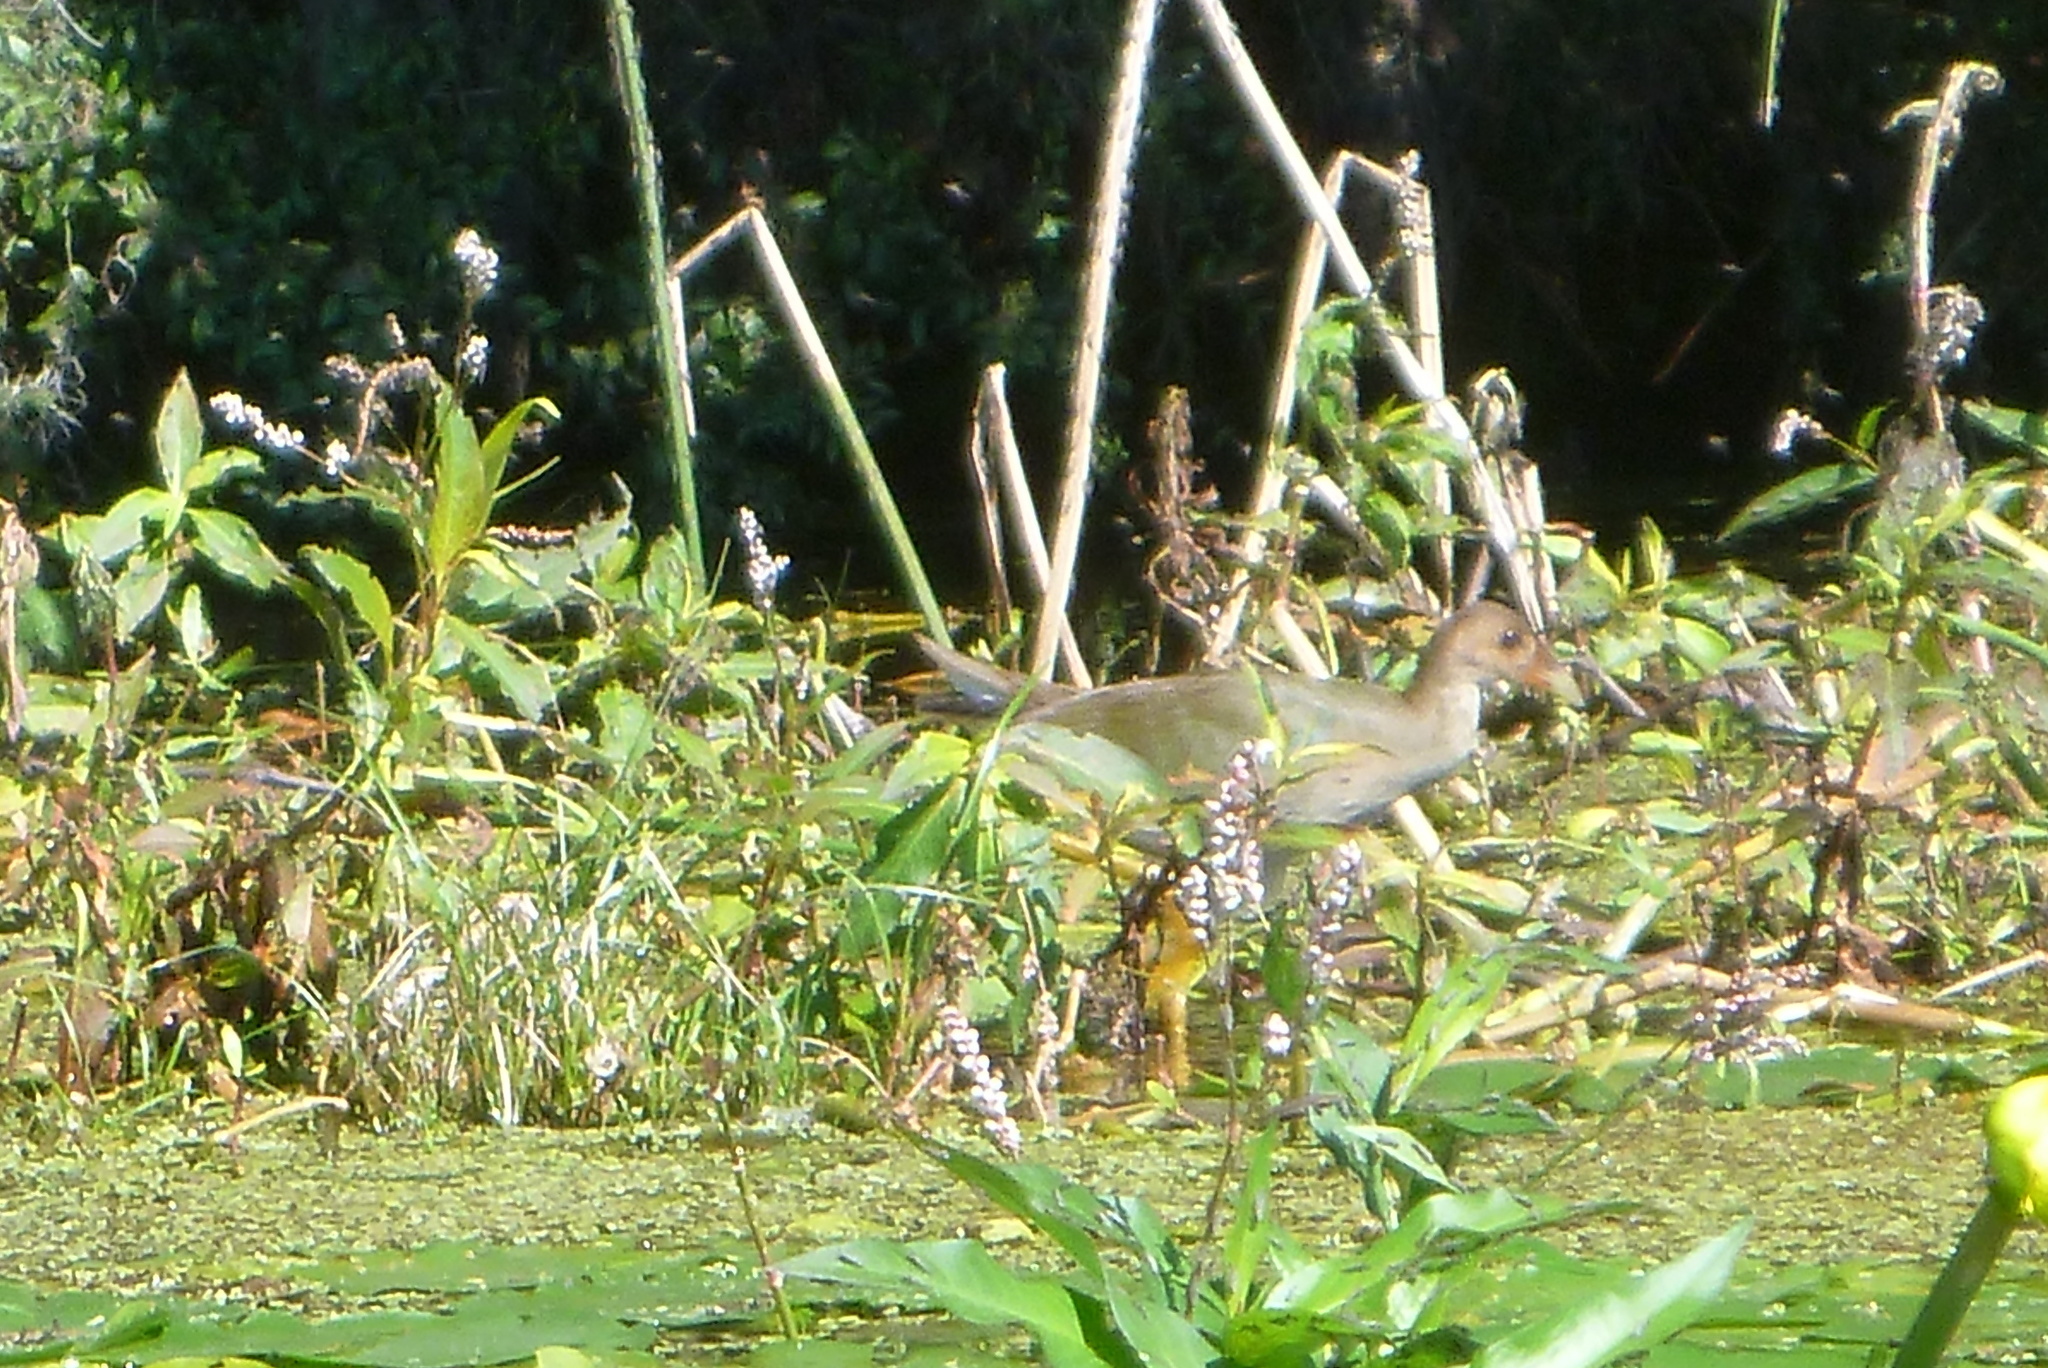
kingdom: Plantae
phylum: Tracheophyta
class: Magnoliopsida
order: Caryophyllales
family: Polygonaceae
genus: Persicaria
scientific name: Persicaria hydropiperoides
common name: Swamp smartweed
